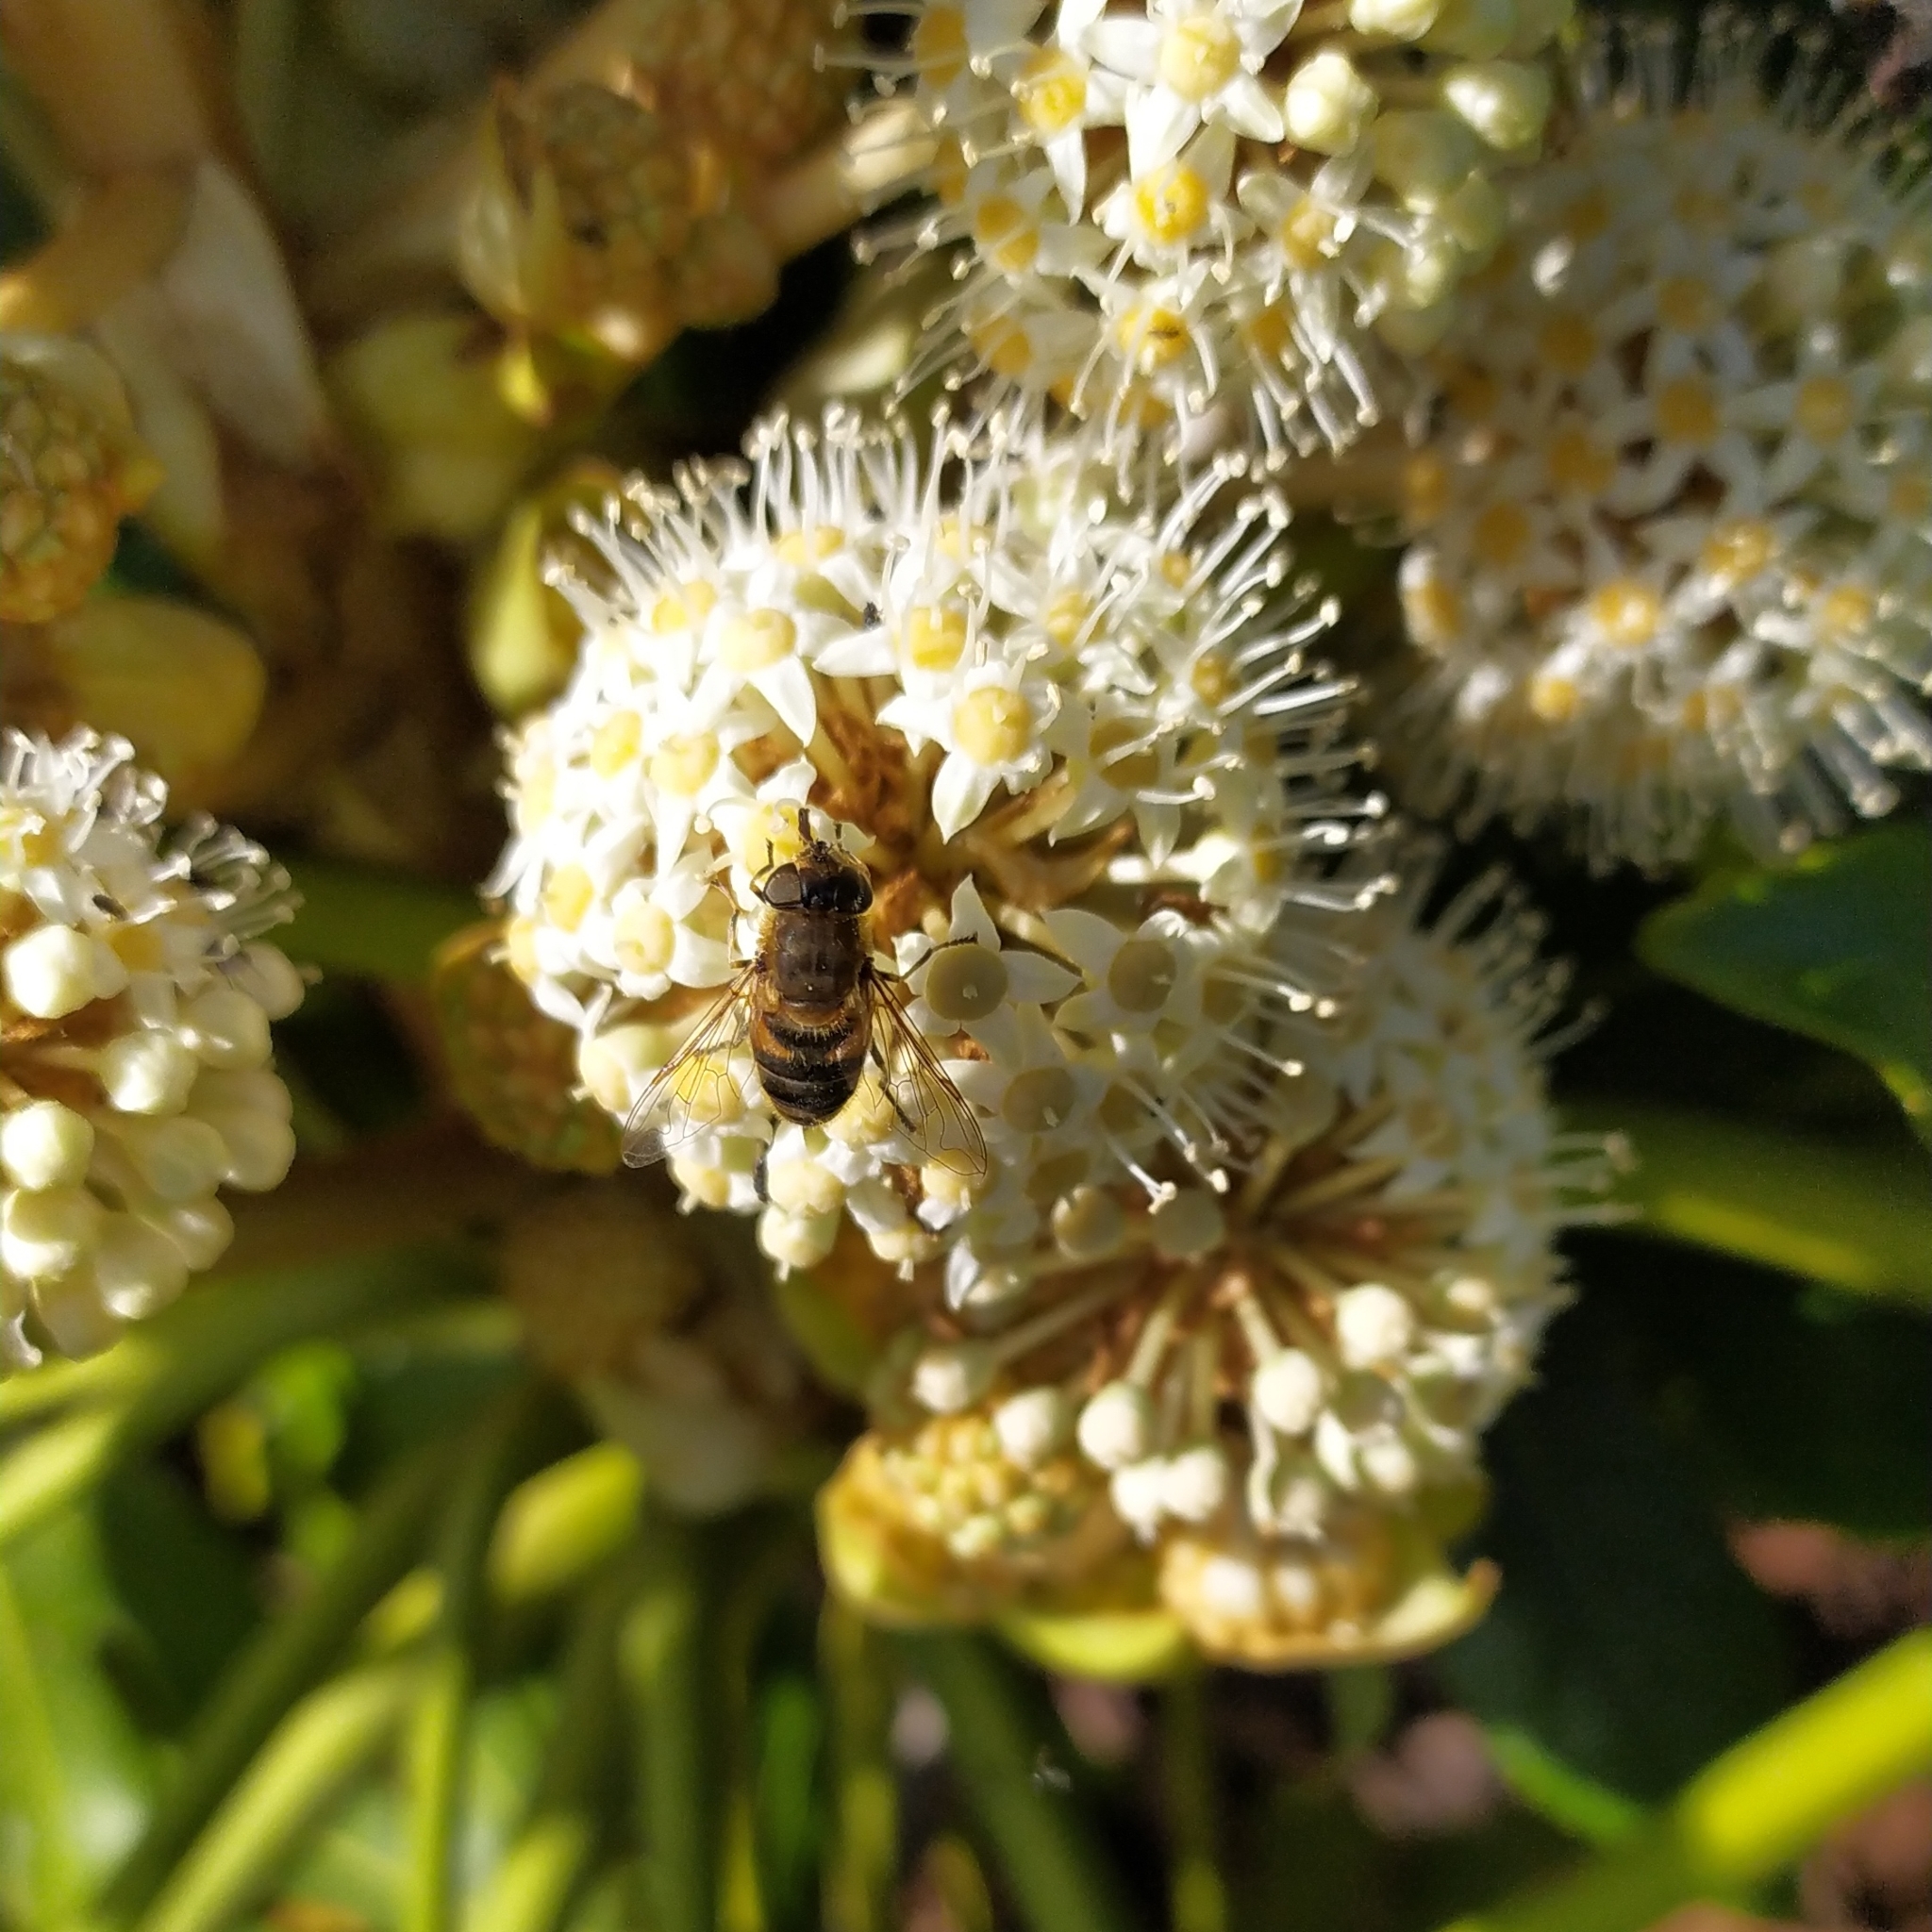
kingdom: Animalia
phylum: Arthropoda
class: Insecta
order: Diptera
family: Syrphidae
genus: Eristalis
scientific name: Eristalis pertinax
